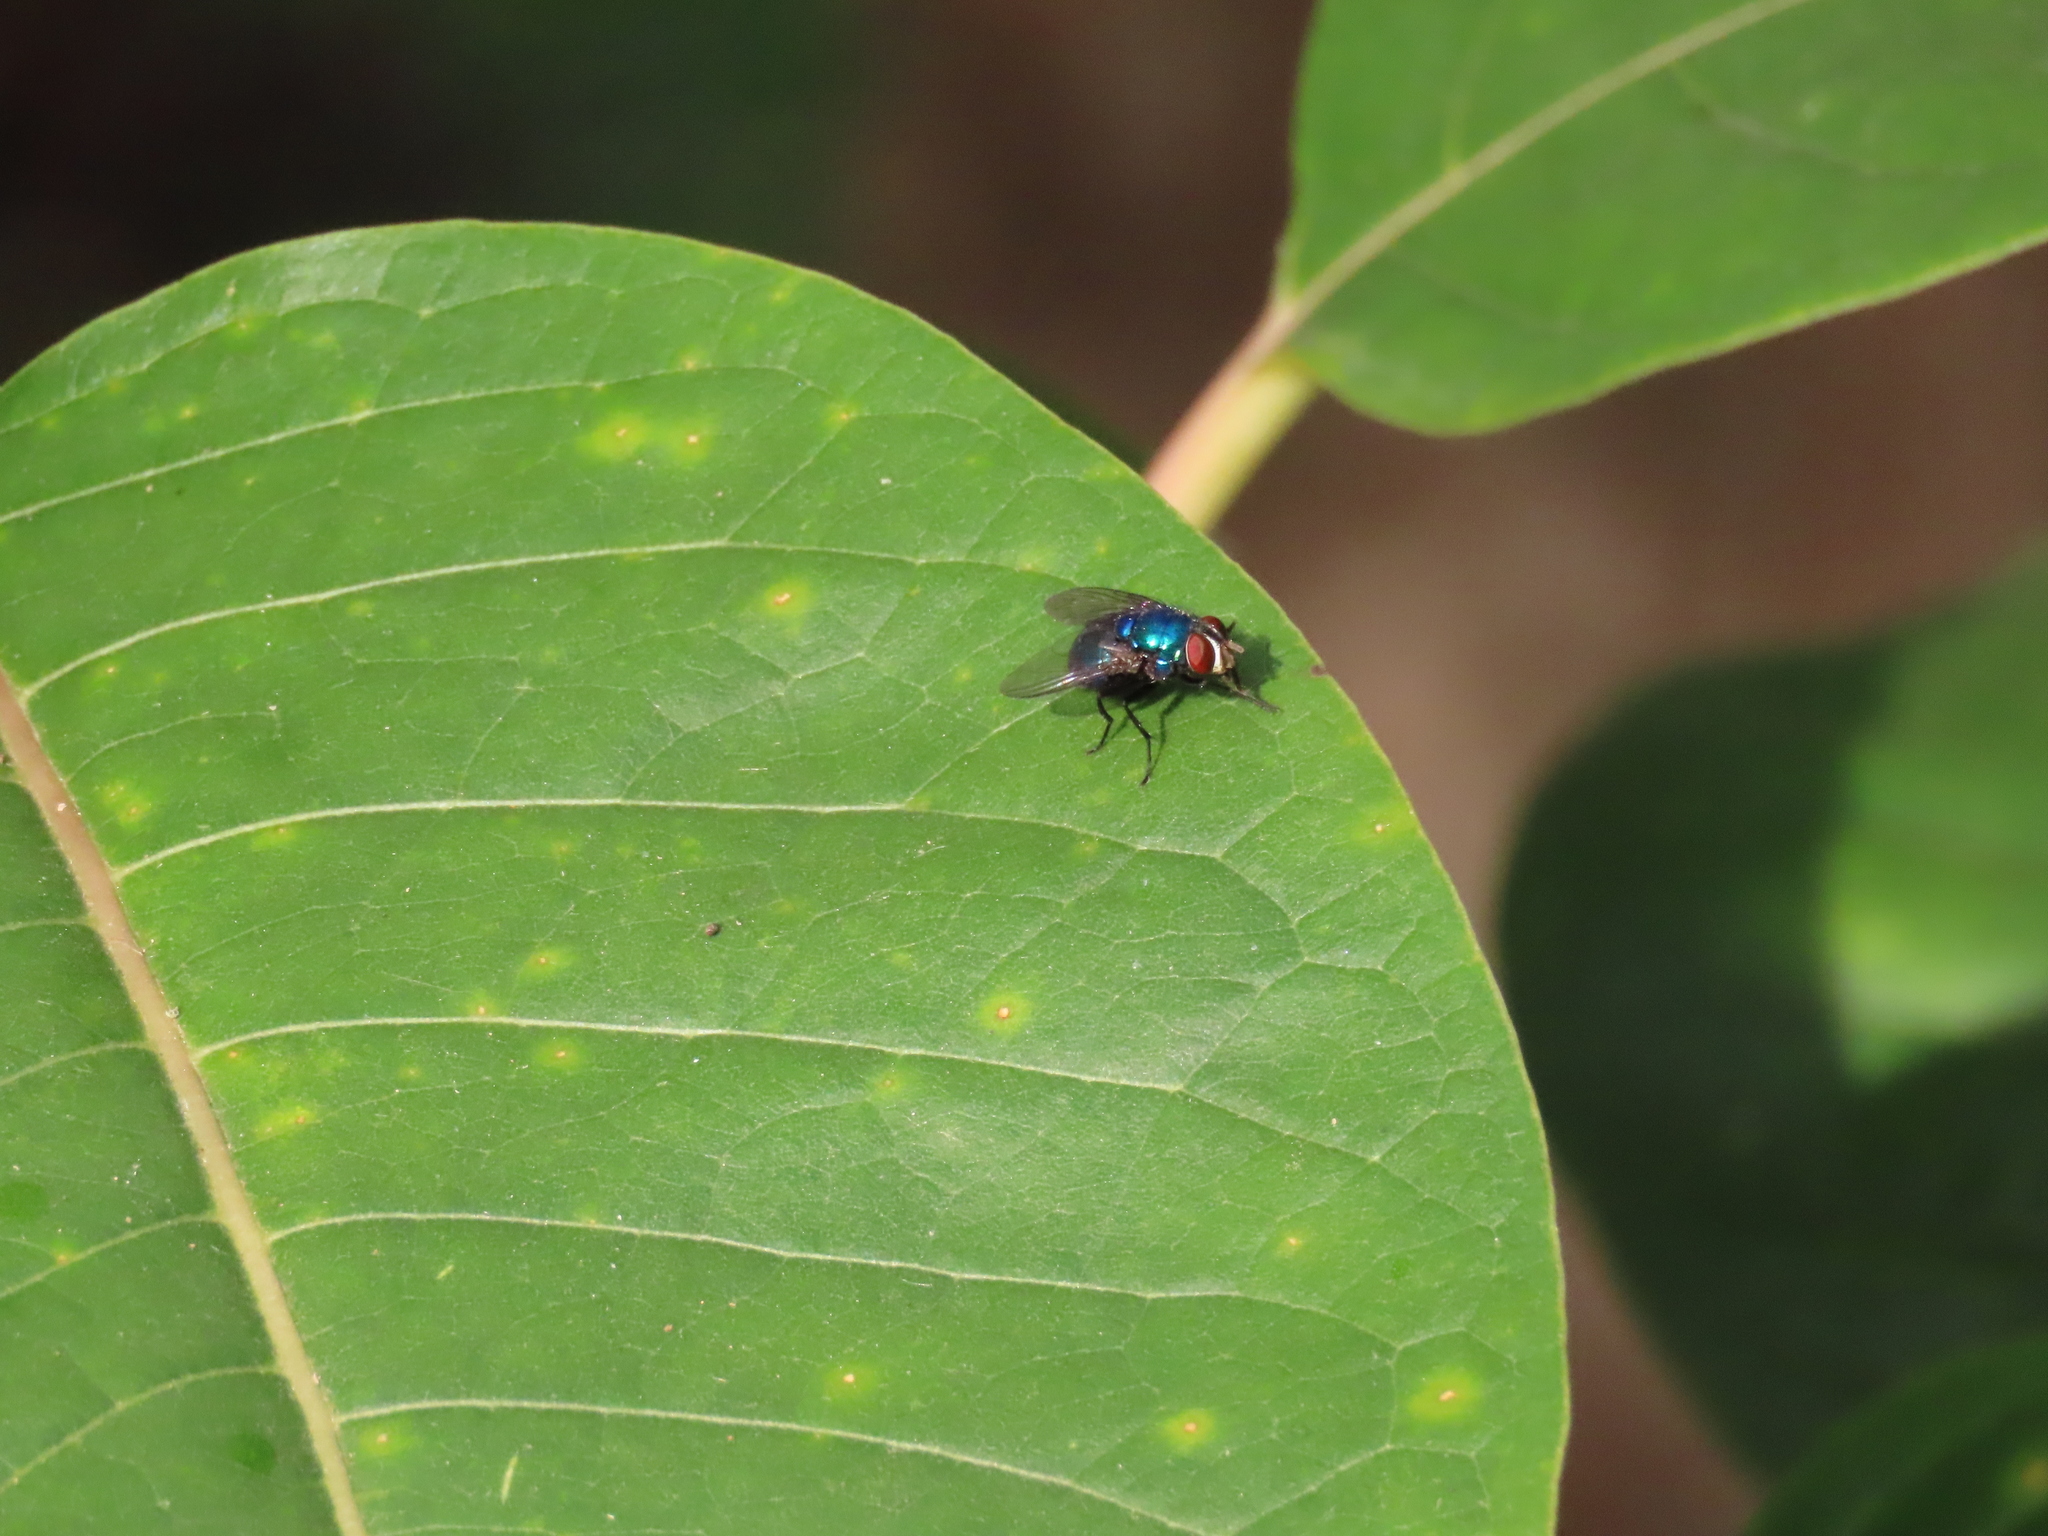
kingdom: Animalia
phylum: Arthropoda
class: Insecta
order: Diptera
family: Calliphoridae
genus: Lucilia
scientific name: Lucilia eximia
